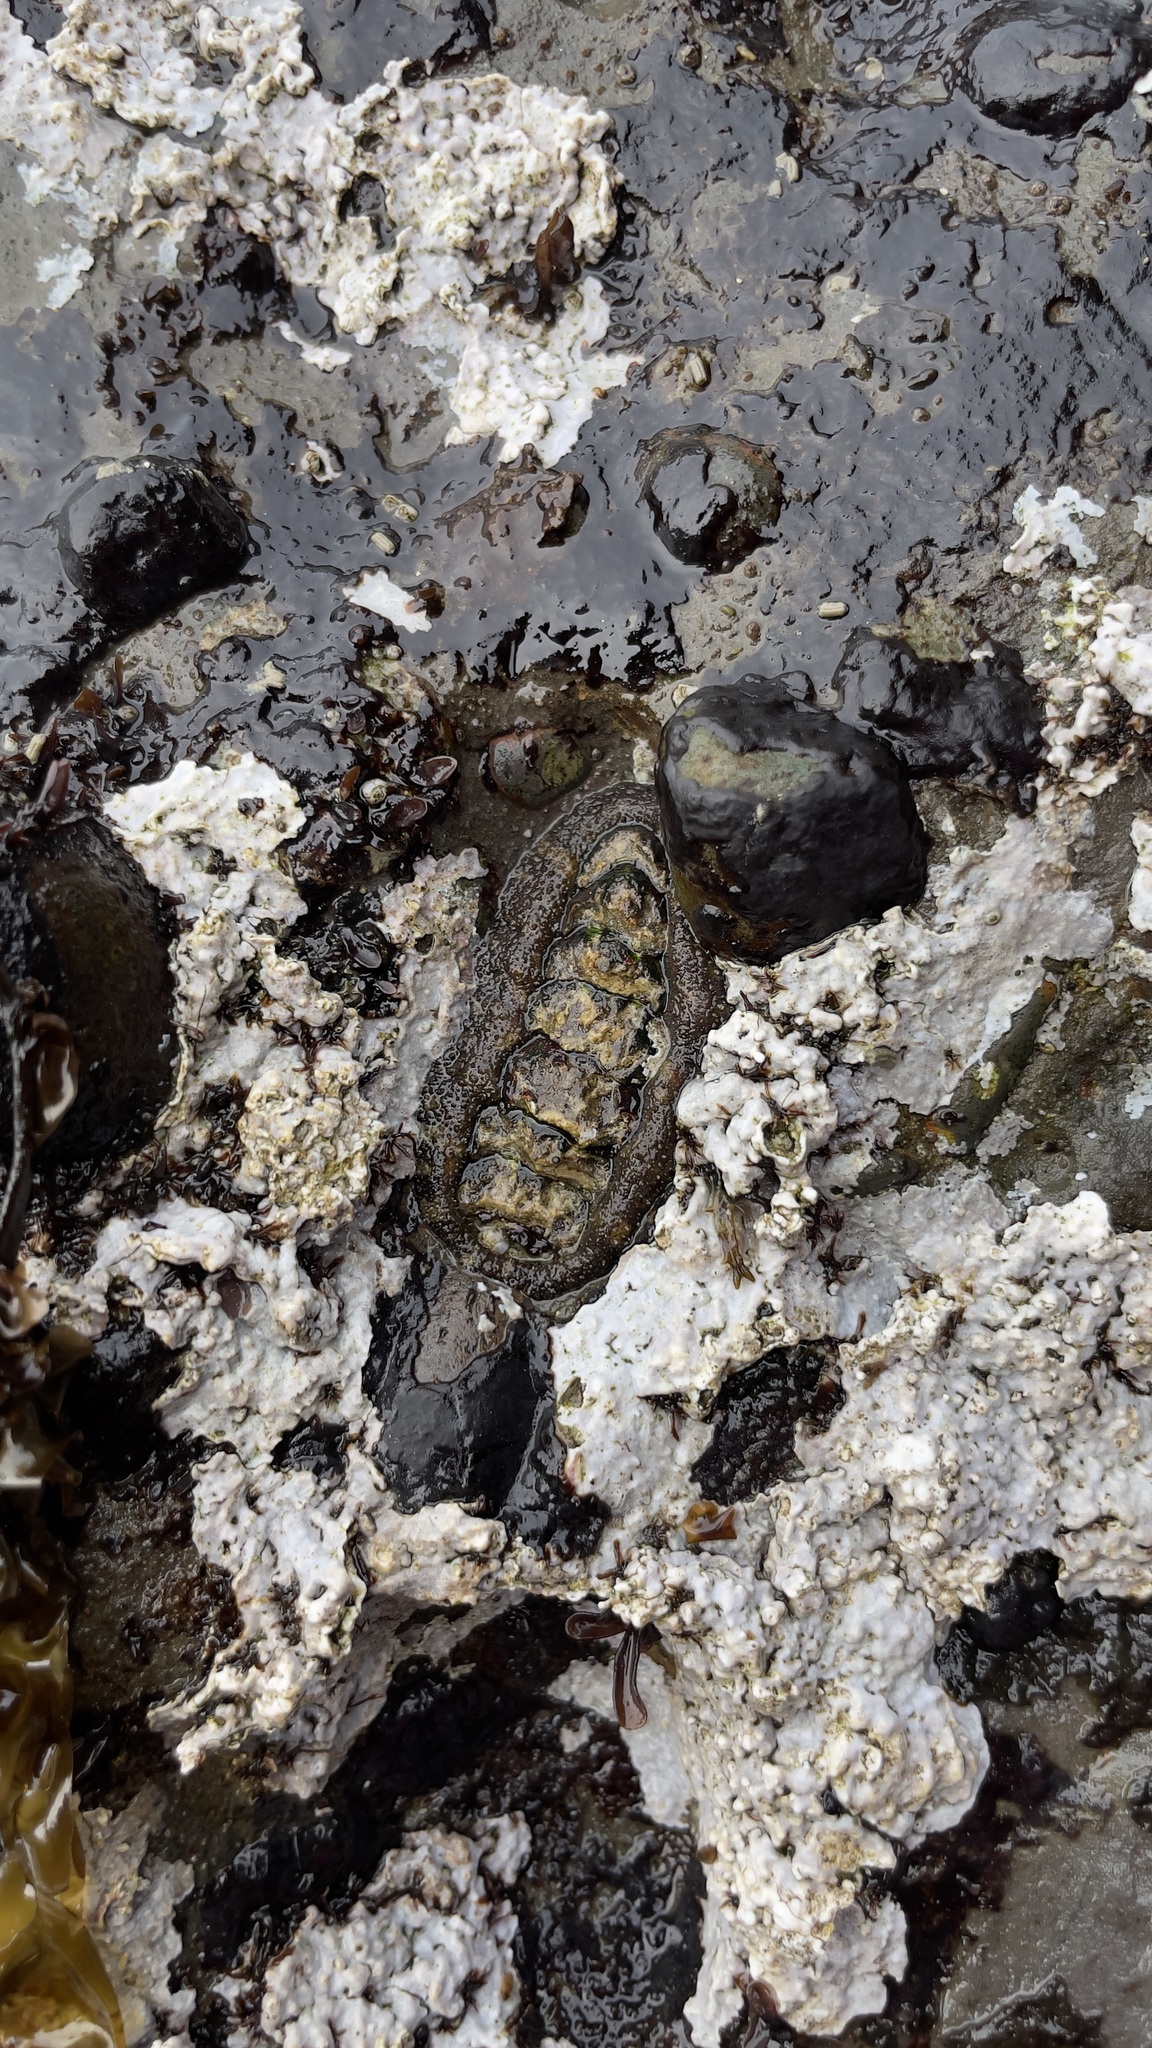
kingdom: Animalia
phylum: Mollusca
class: Polyplacophora
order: Chitonida
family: Tonicellidae
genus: Nuttallina
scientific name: Nuttallina californica
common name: California nuttall chiton
